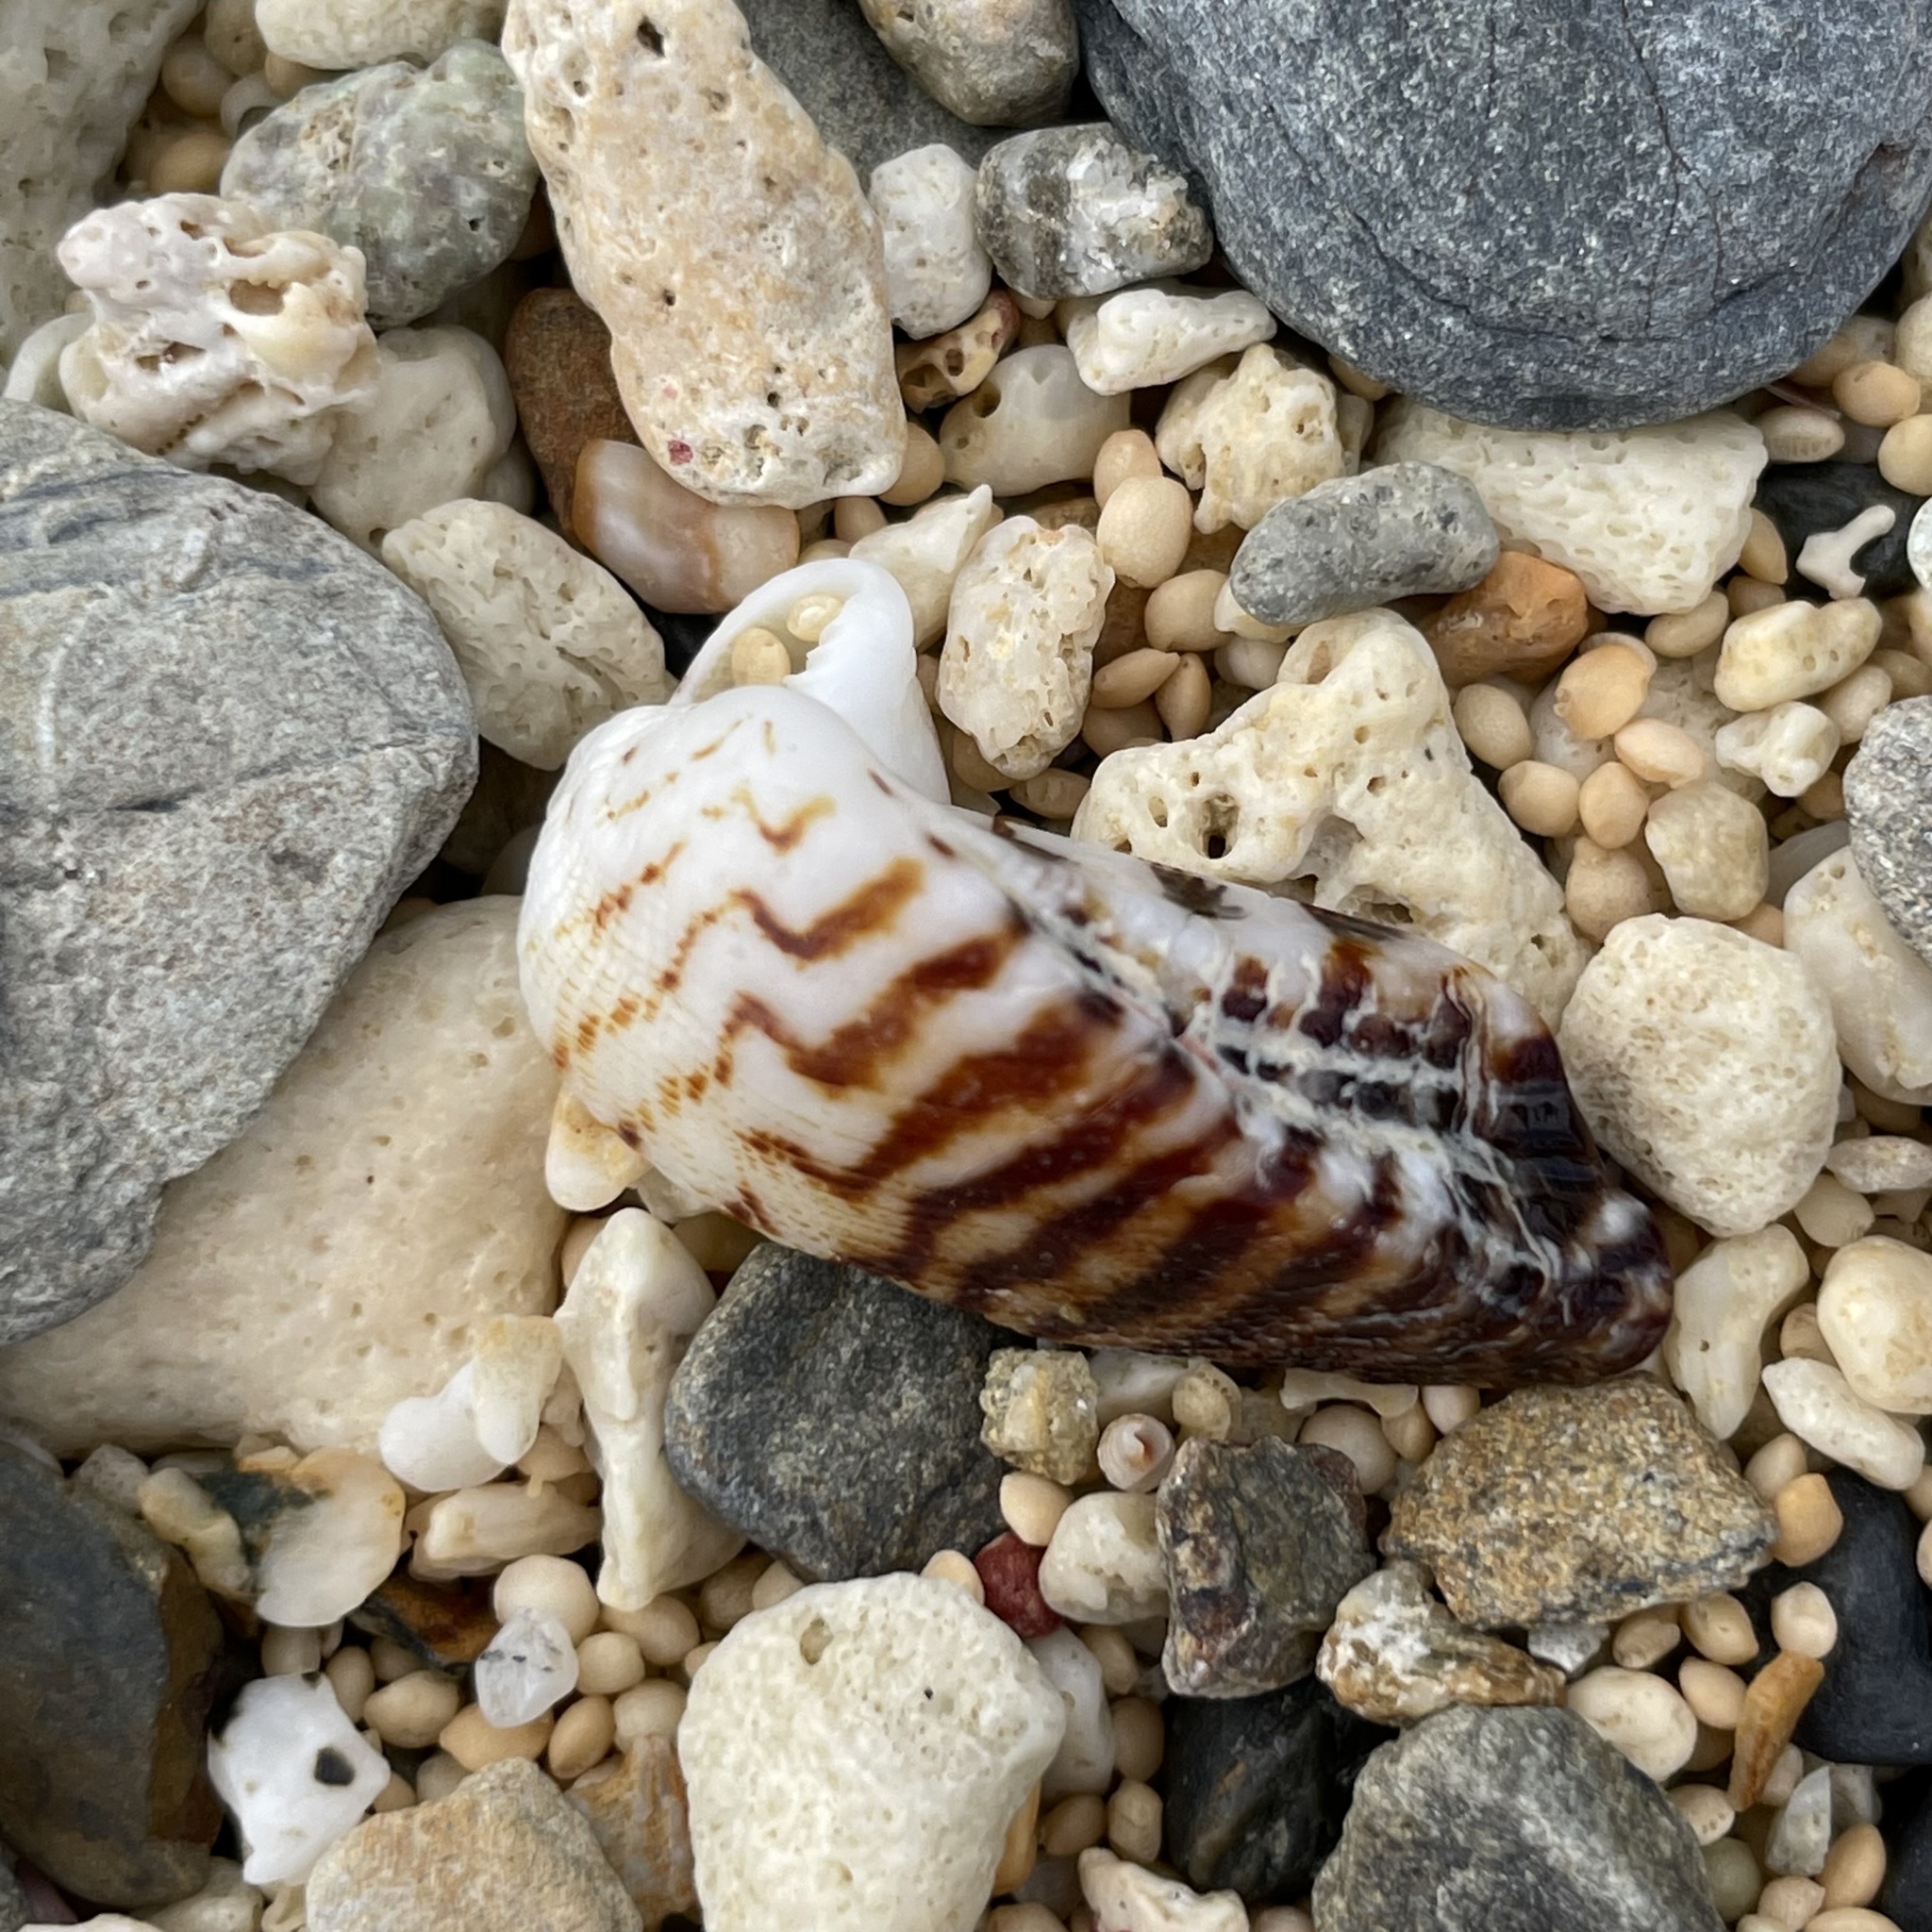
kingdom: Animalia
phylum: Mollusca
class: Bivalvia
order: Arcida
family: Arcidae
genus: Lamarcka
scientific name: Lamarcka ventricosa
